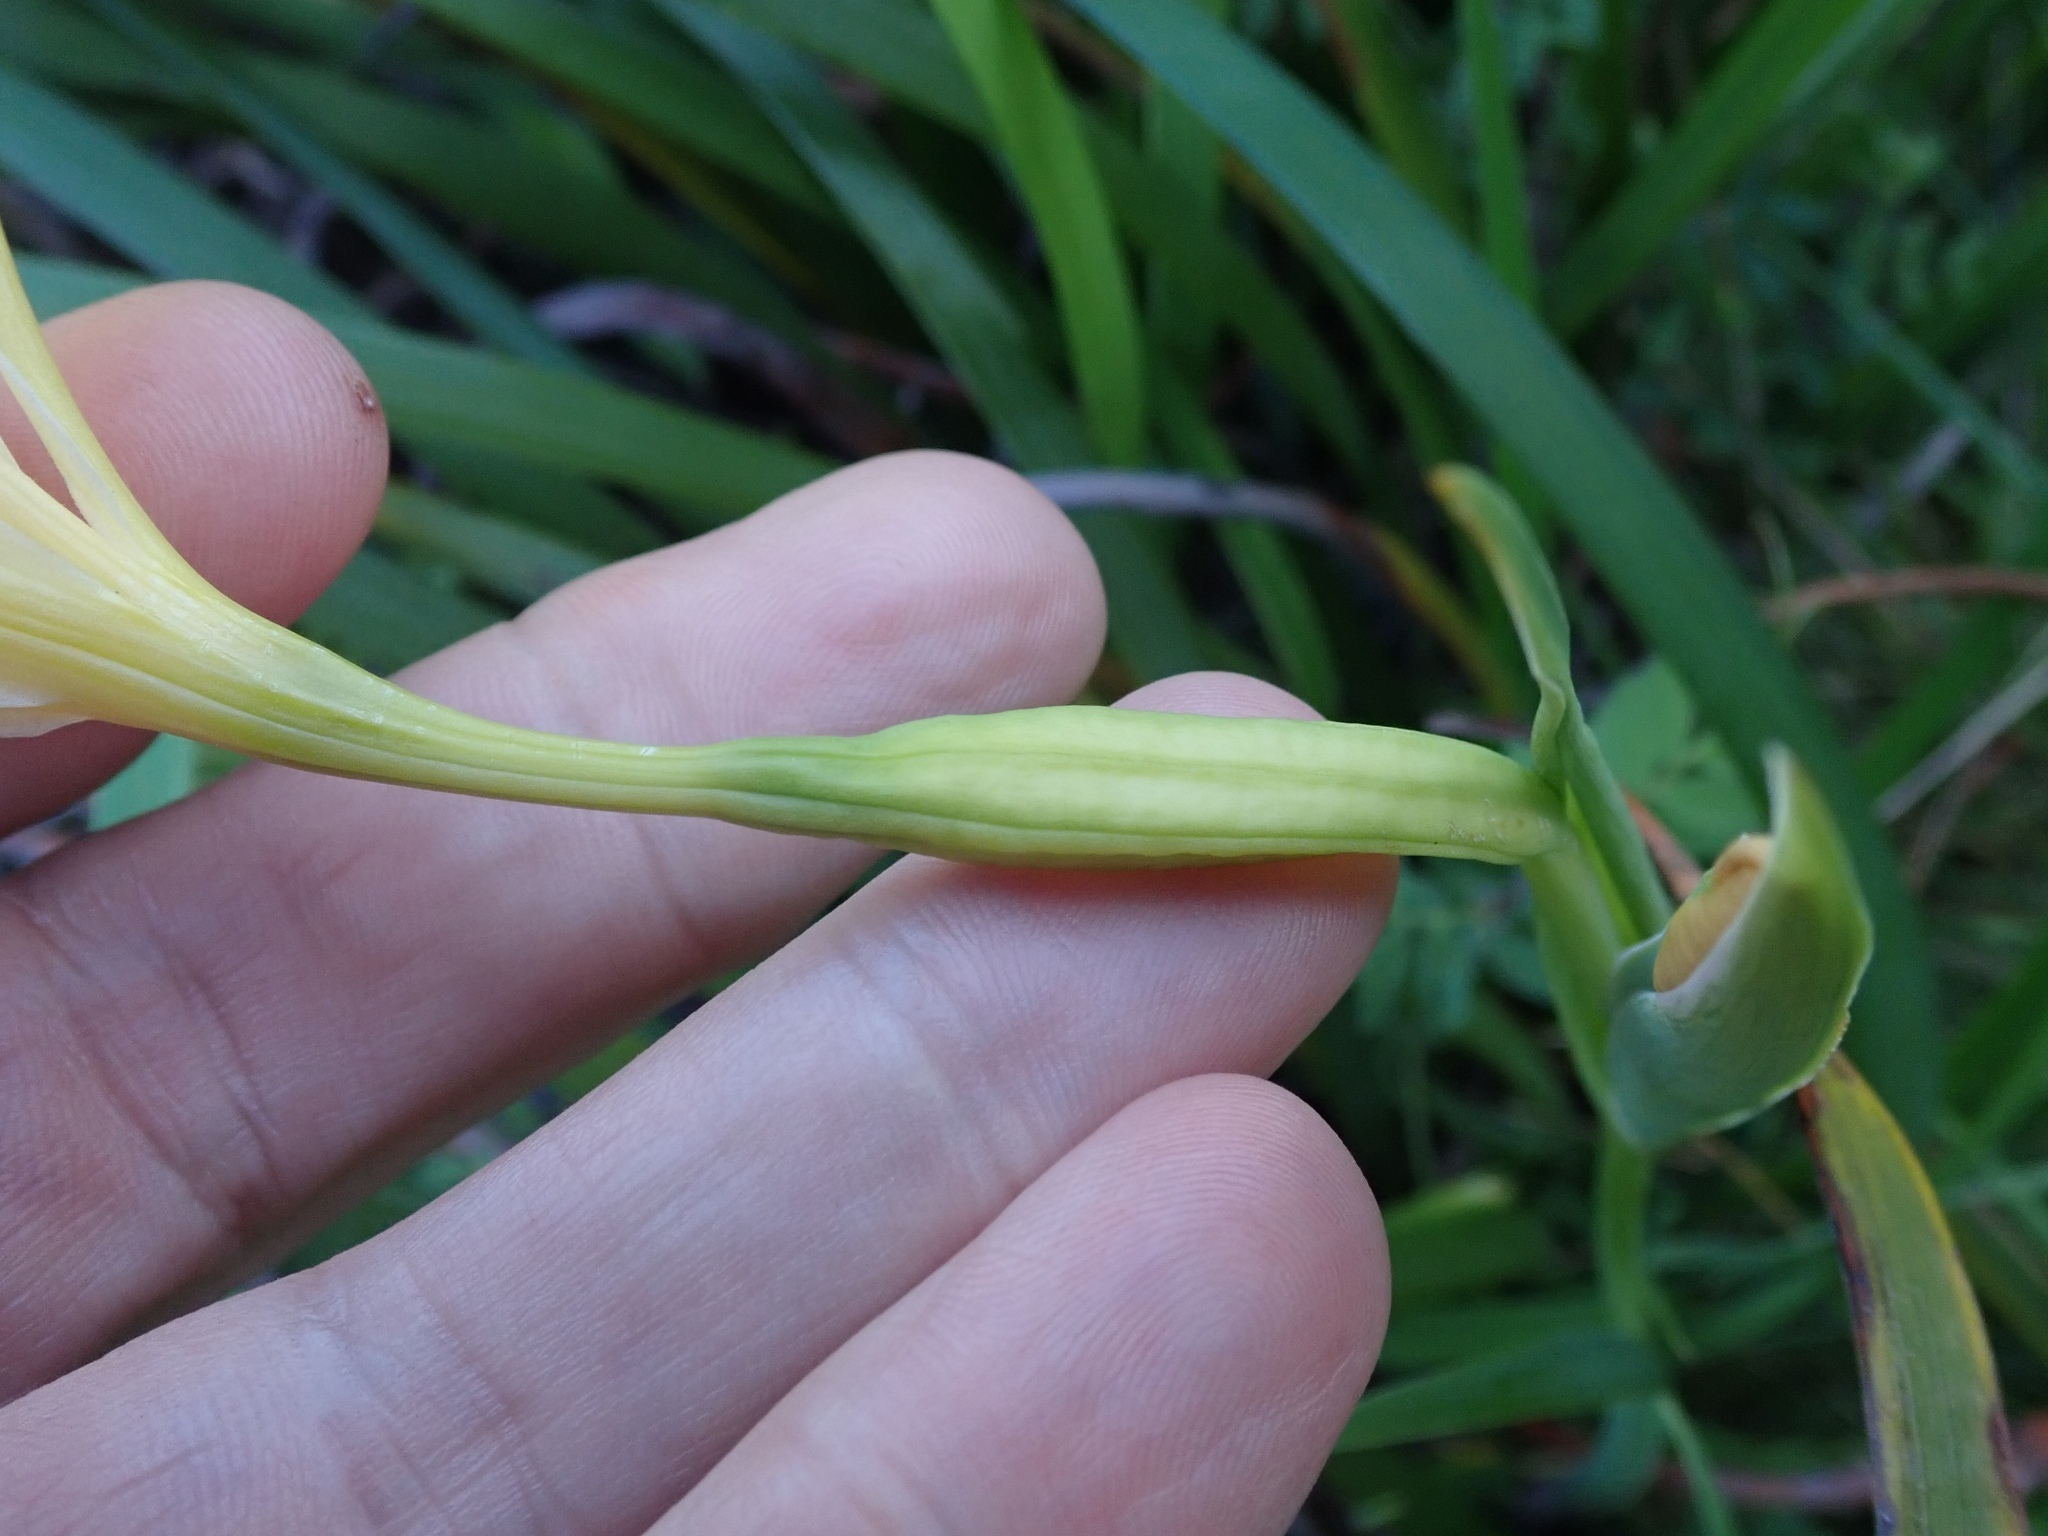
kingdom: Plantae
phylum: Tracheophyta
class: Liliopsida
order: Asparagales
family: Iridaceae
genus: Iris
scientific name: Iris douglasiana
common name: Marin iris
